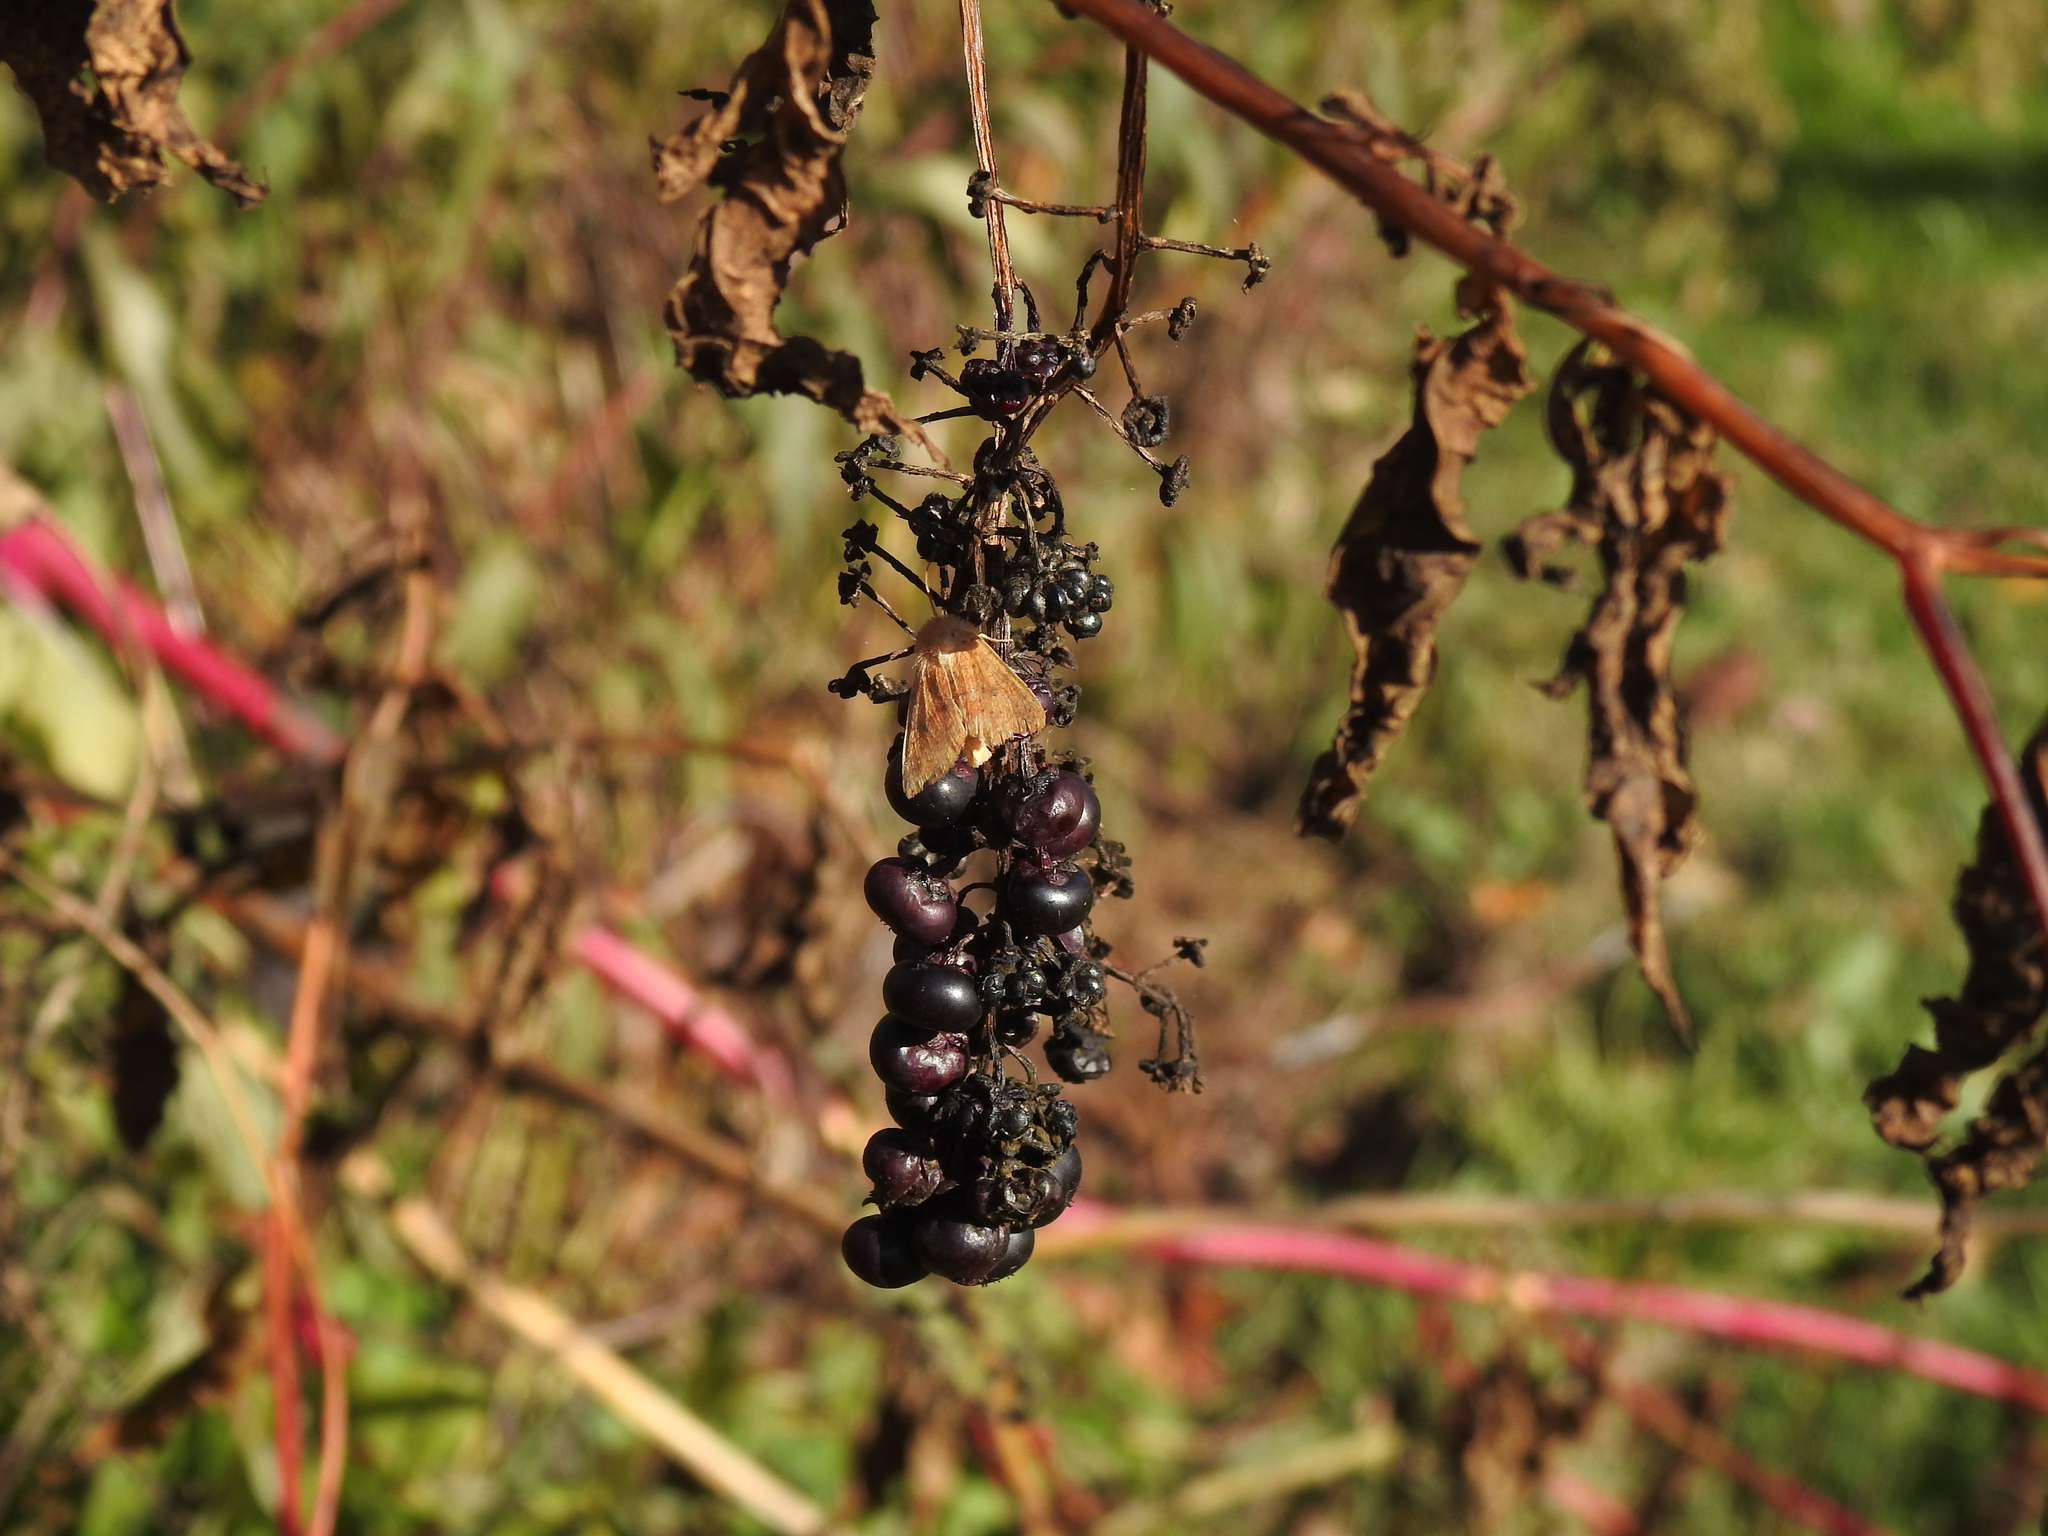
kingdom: Plantae
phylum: Tracheophyta
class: Magnoliopsida
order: Caryophyllales
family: Phytolaccaceae
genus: Phytolacca
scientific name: Phytolacca americana
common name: American pokeweed
